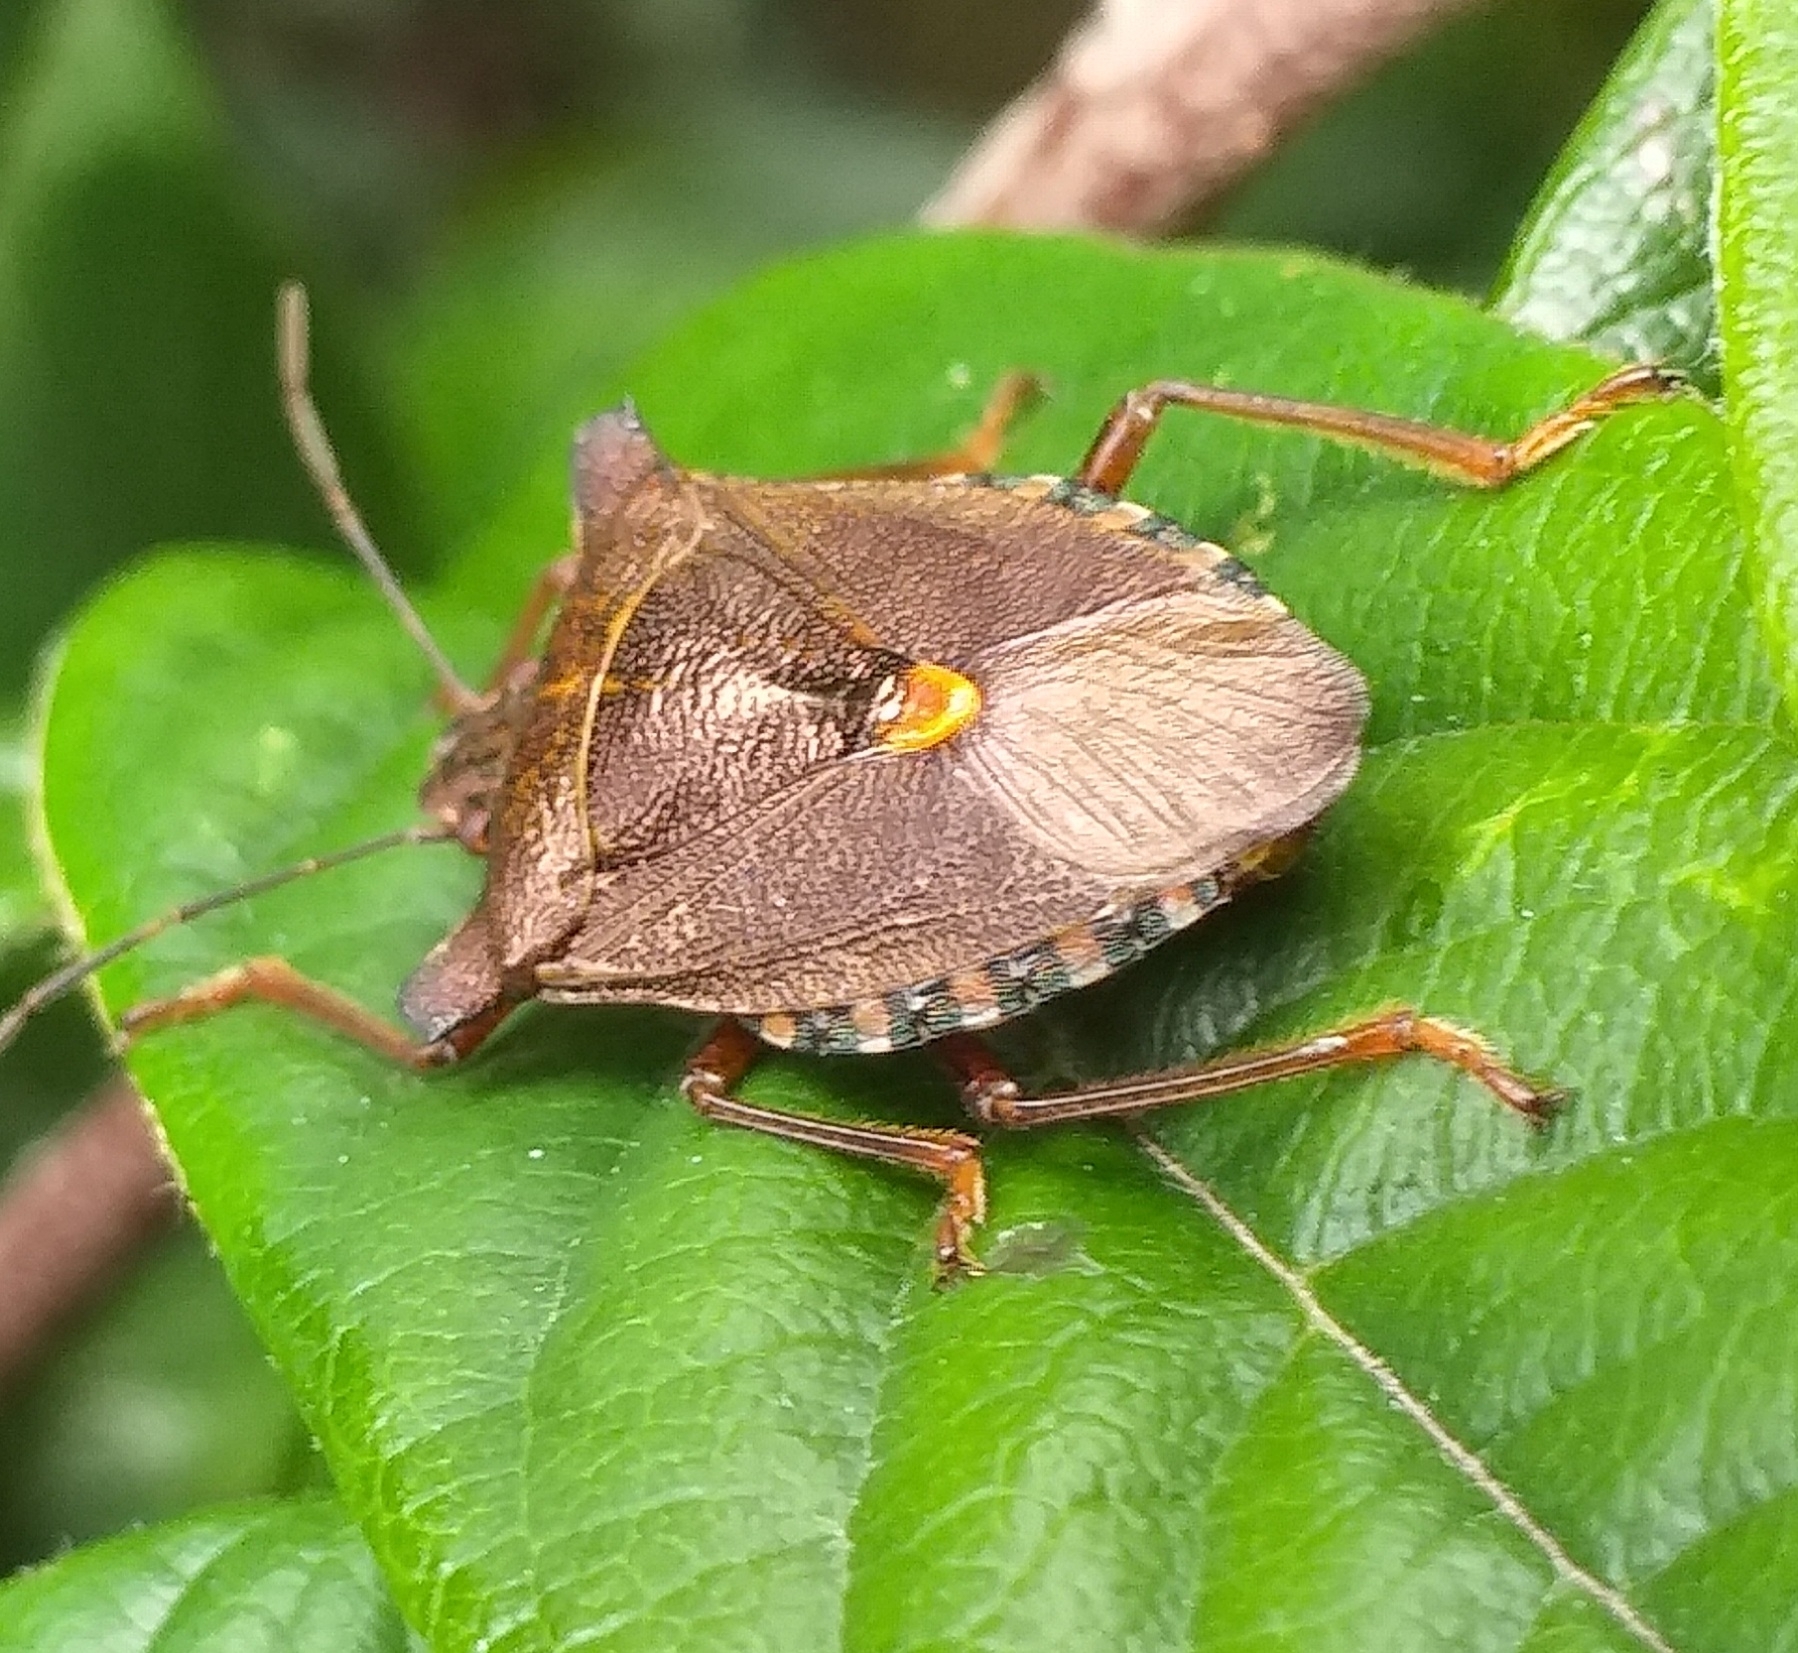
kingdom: Animalia
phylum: Arthropoda
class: Insecta
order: Hemiptera
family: Pentatomidae
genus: Pentatoma
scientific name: Pentatoma rufipes
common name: Forest bug
